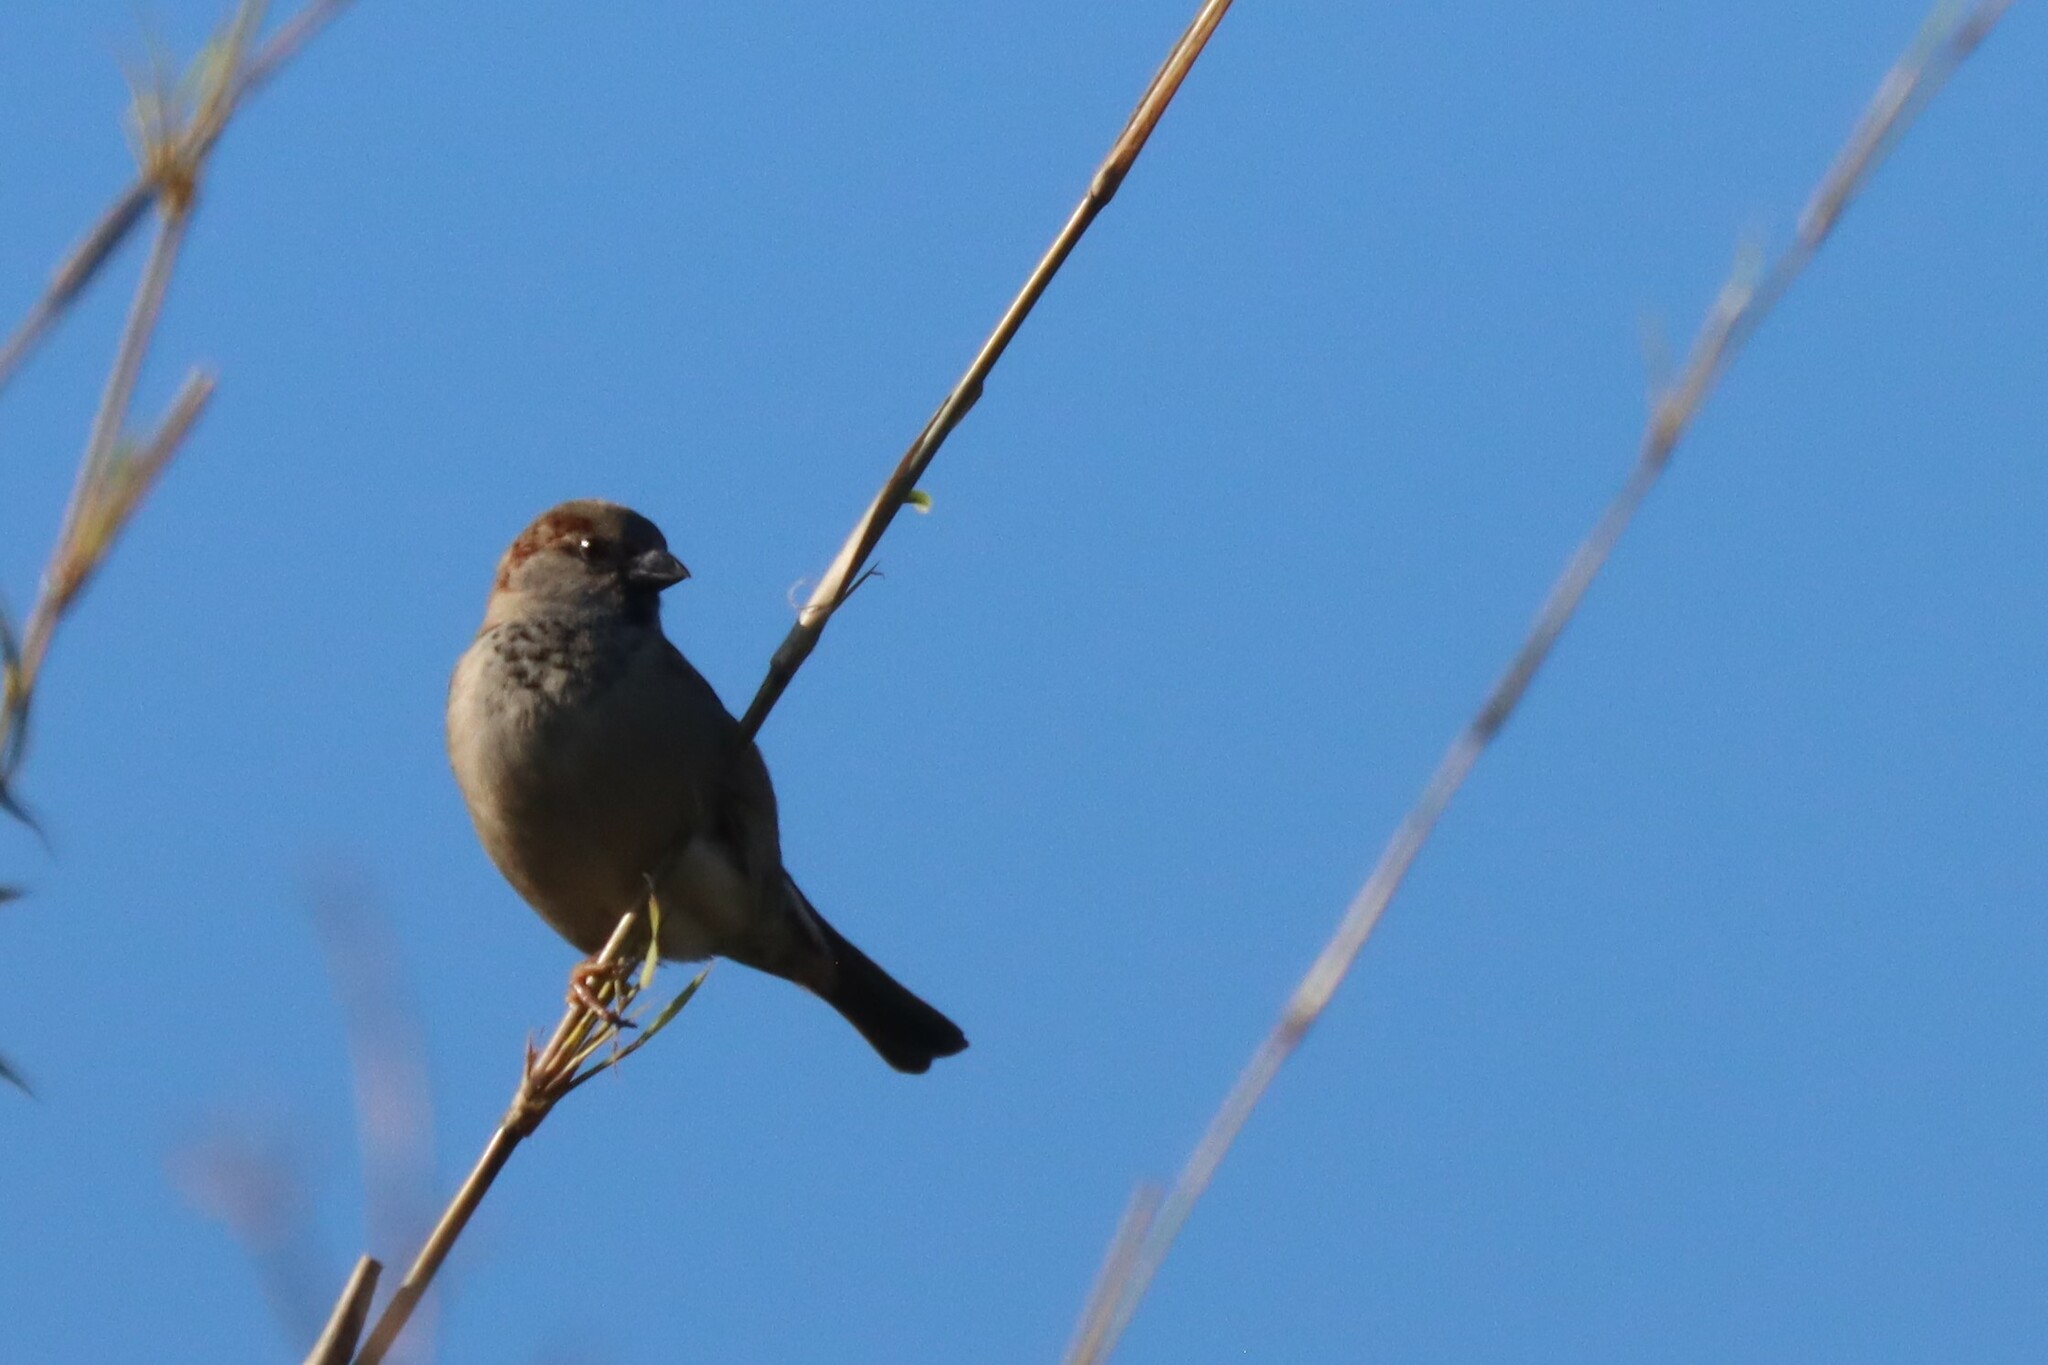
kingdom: Animalia
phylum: Chordata
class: Aves
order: Passeriformes
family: Passeridae
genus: Passer
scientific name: Passer domesticus
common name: House sparrow
